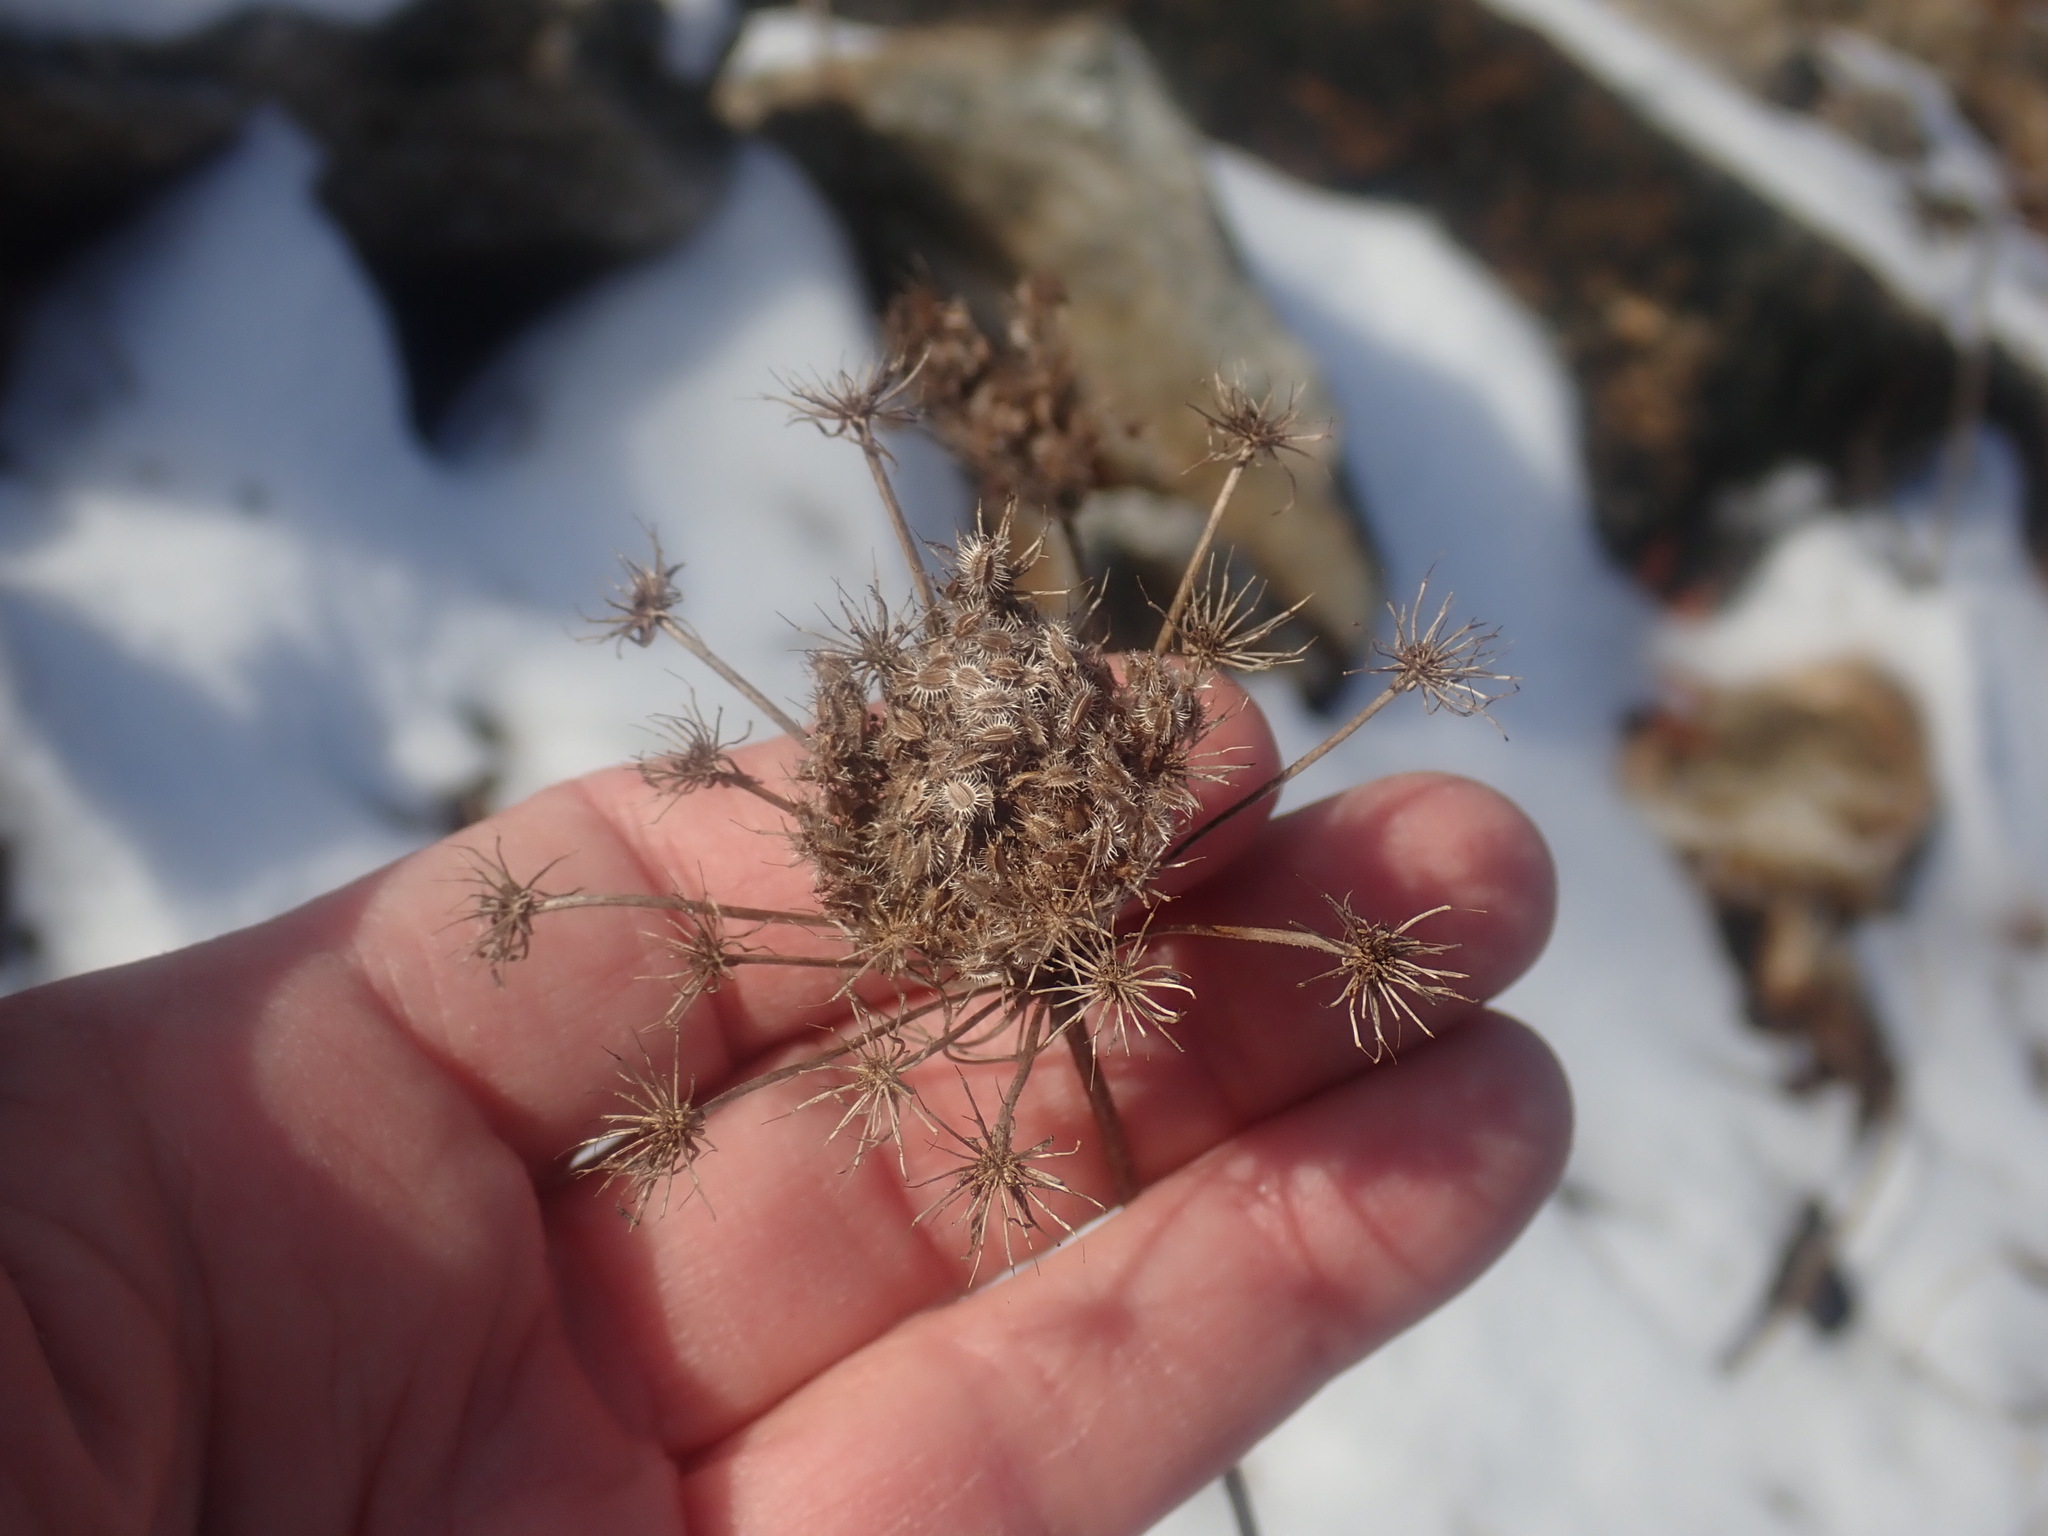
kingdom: Plantae
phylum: Tracheophyta
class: Magnoliopsida
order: Apiales
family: Apiaceae
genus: Daucus
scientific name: Daucus carota
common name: Wild carrot
